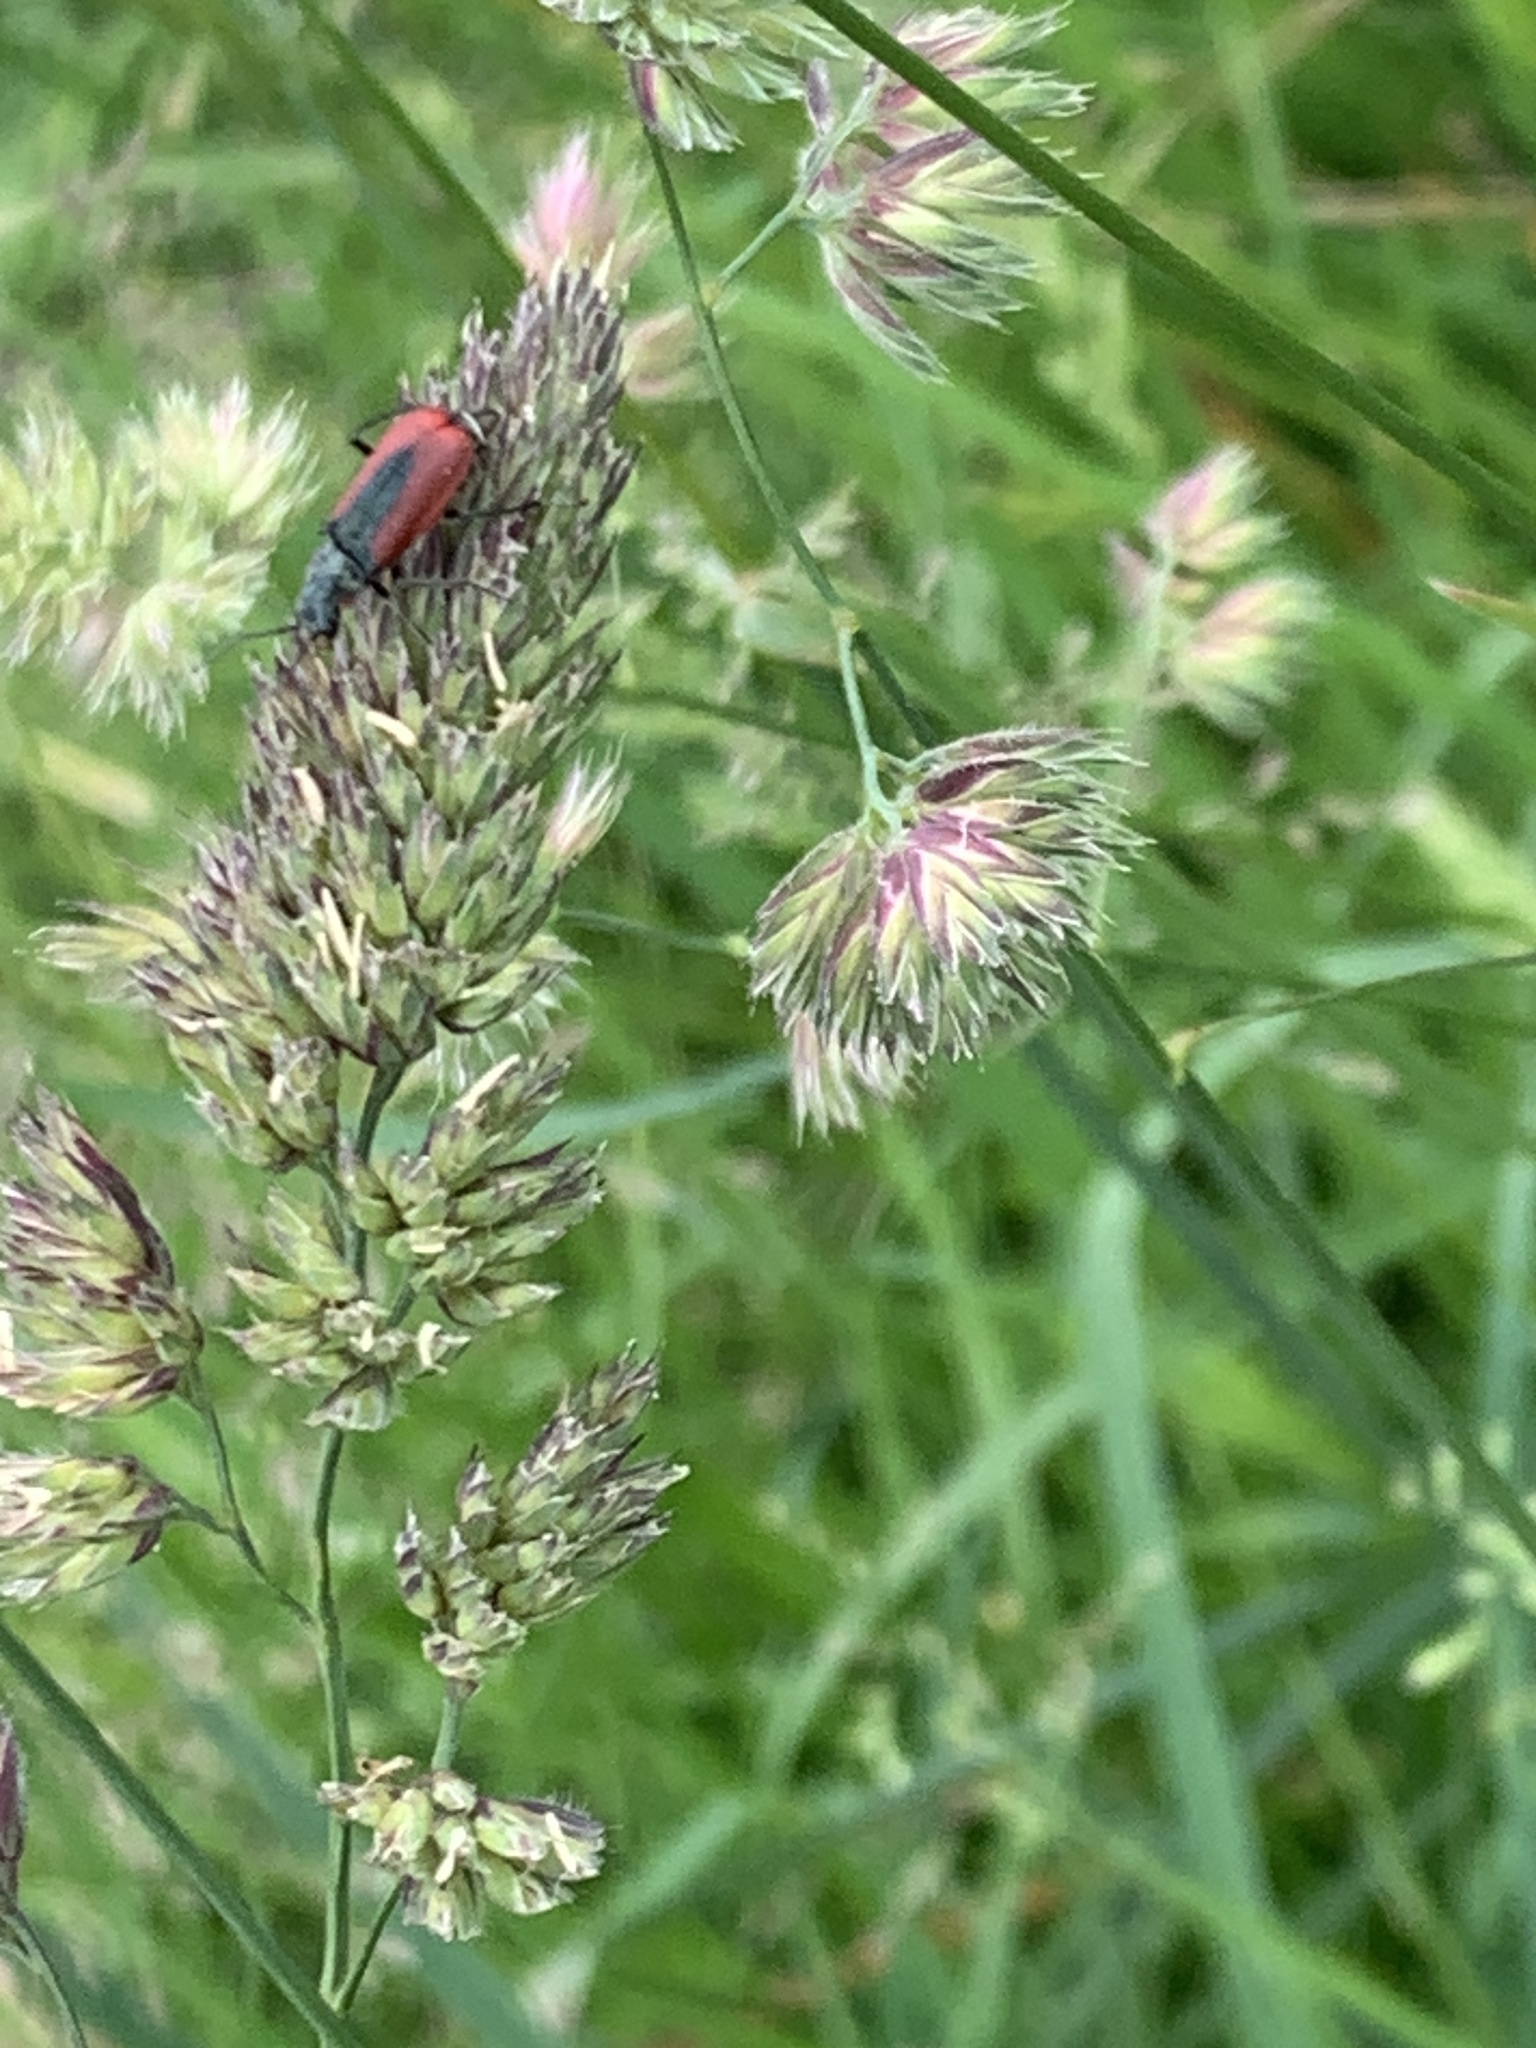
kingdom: Animalia
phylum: Arthropoda
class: Insecta
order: Coleoptera
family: Melyridae
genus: Malachius
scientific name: Malachius aeneus
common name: Scarlet malachite beetle
